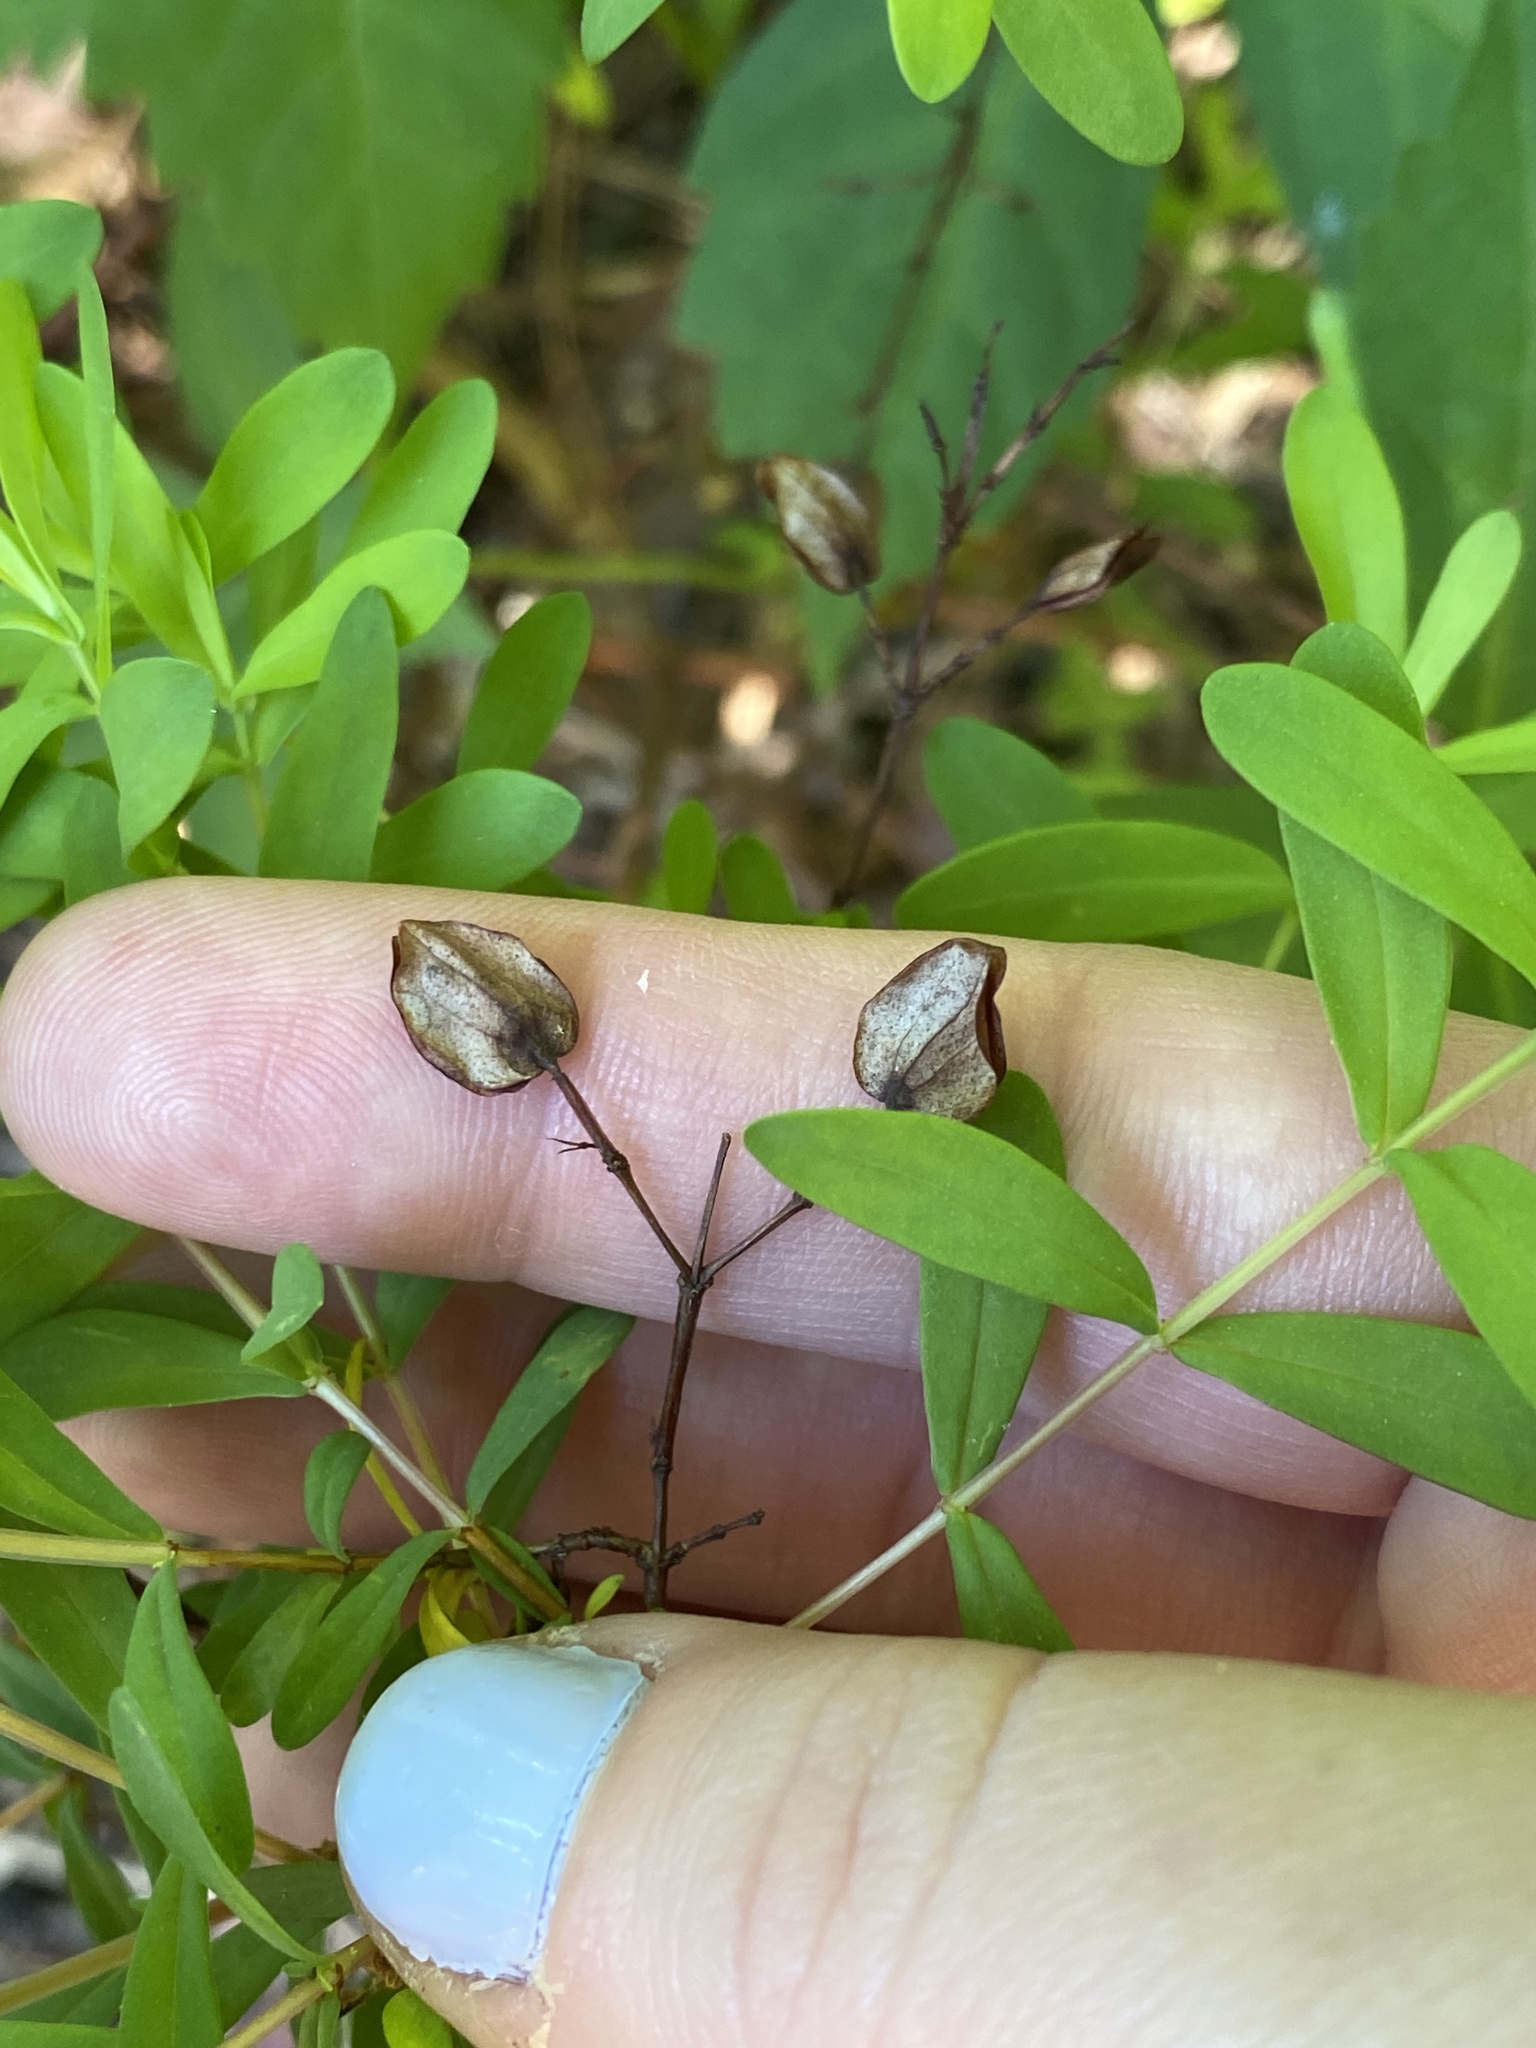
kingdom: Plantae
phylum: Tracheophyta
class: Magnoliopsida
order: Malpighiales
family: Hypericaceae
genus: Hypericum
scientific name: Hypericum hypericoides
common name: St. andrew's cross
